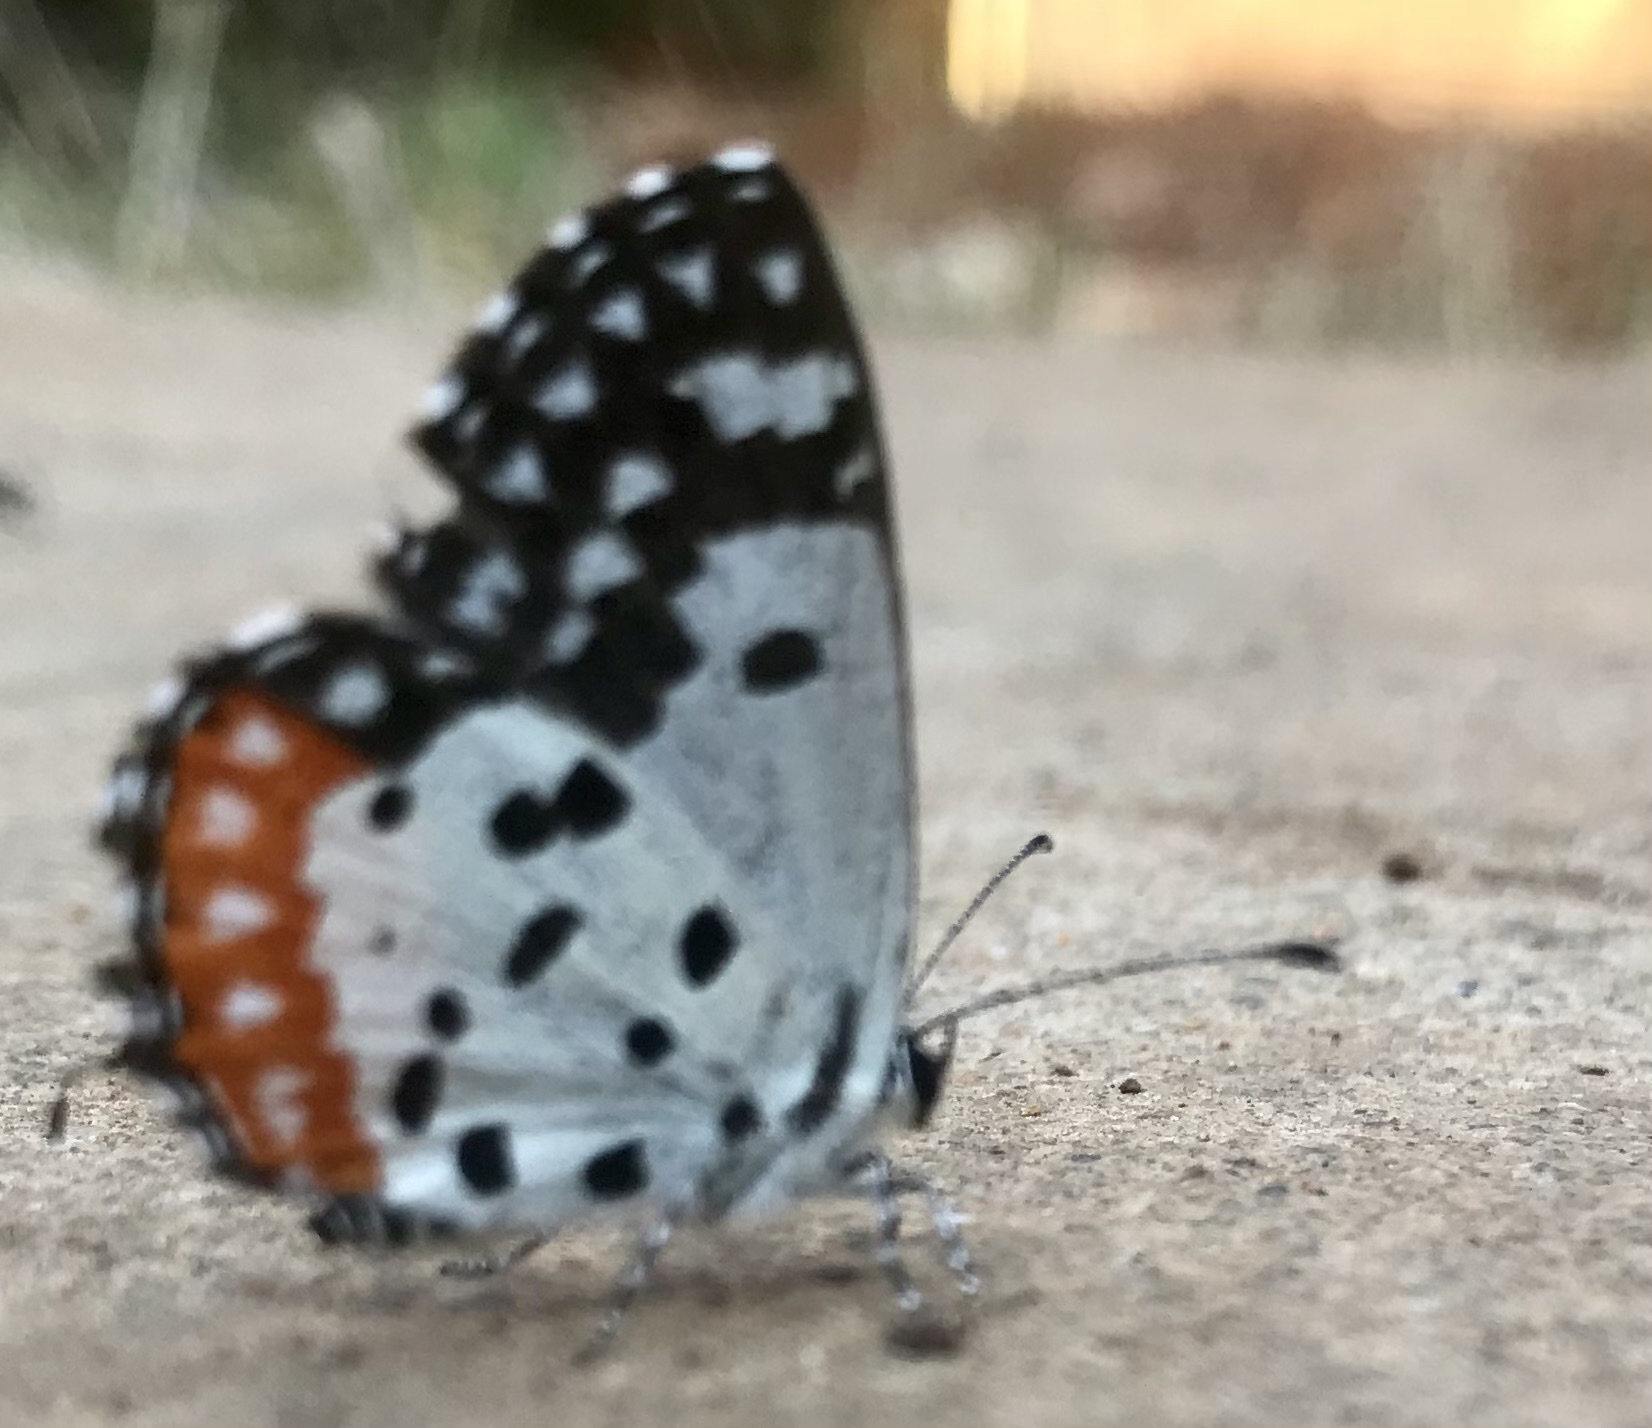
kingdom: Animalia
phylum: Arthropoda
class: Insecta
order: Lepidoptera
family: Lycaenidae
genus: Talicada
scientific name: Talicada nyseus
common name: Red pierrot
